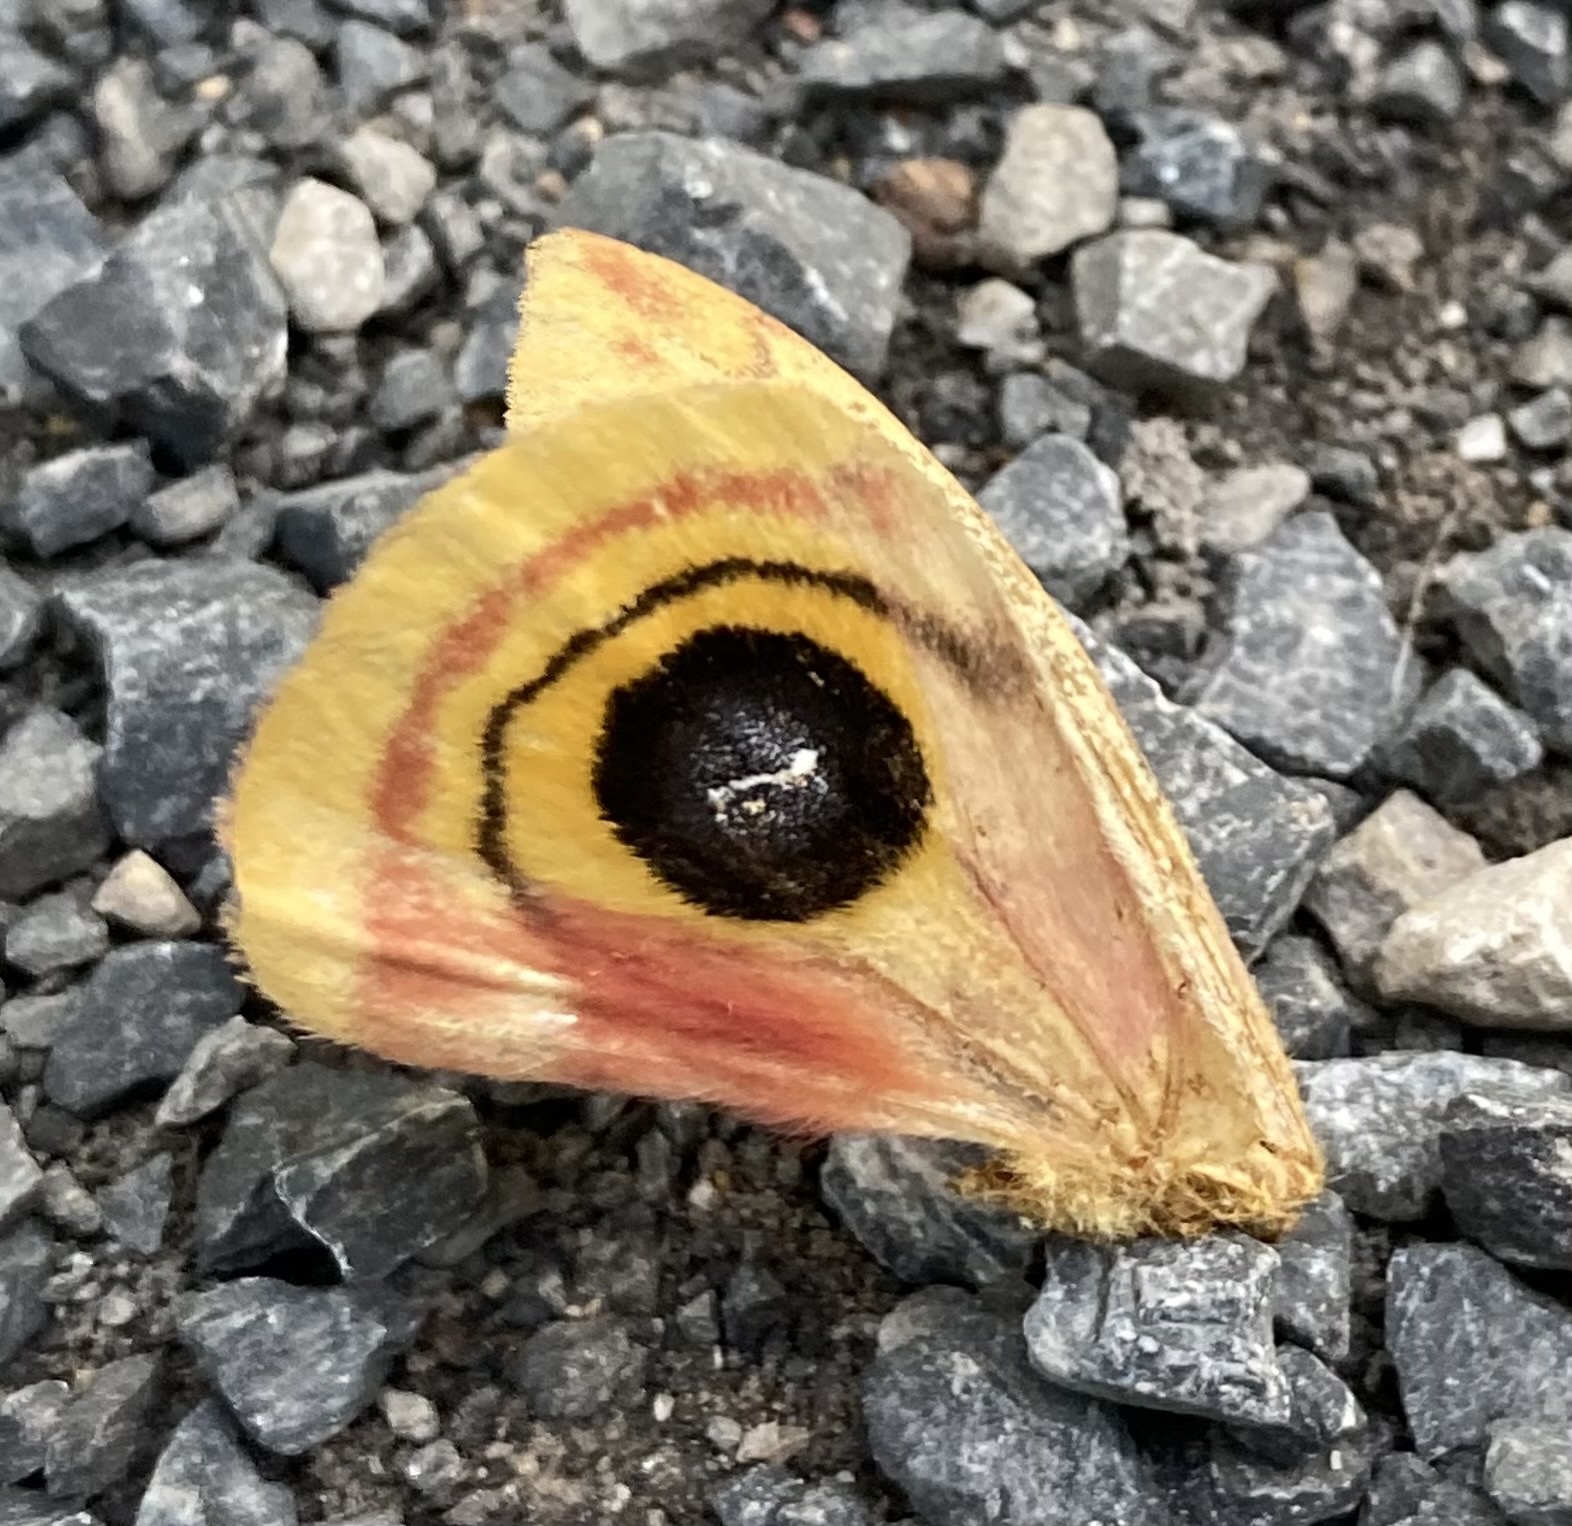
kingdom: Animalia
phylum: Arthropoda
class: Insecta
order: Lepidoptera
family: Saturniidae
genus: Automeris
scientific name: Automeris io
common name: Io moth
